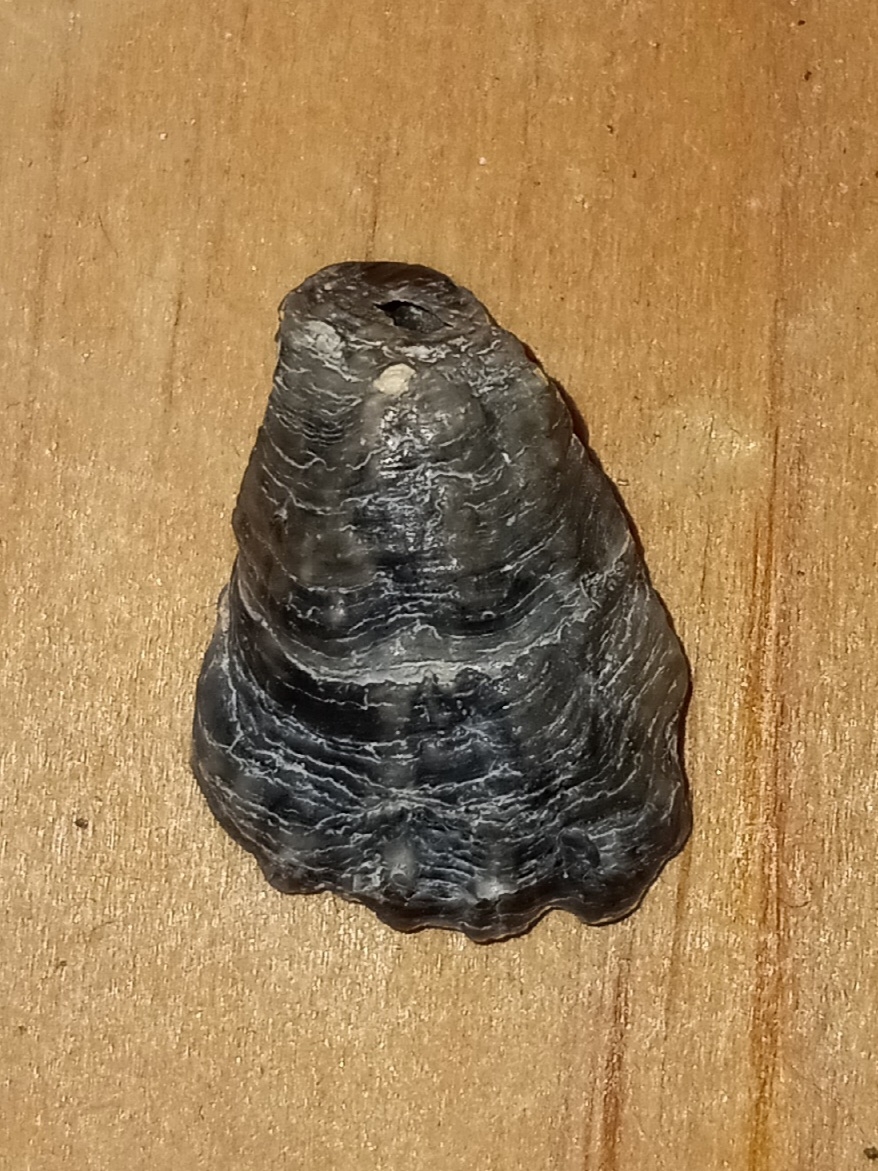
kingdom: Animalia
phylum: Mollusca
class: Bivalvia
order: Ostreida
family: Ostreidae
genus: Crassostrea
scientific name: Crassostrea virginica
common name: American oyster
